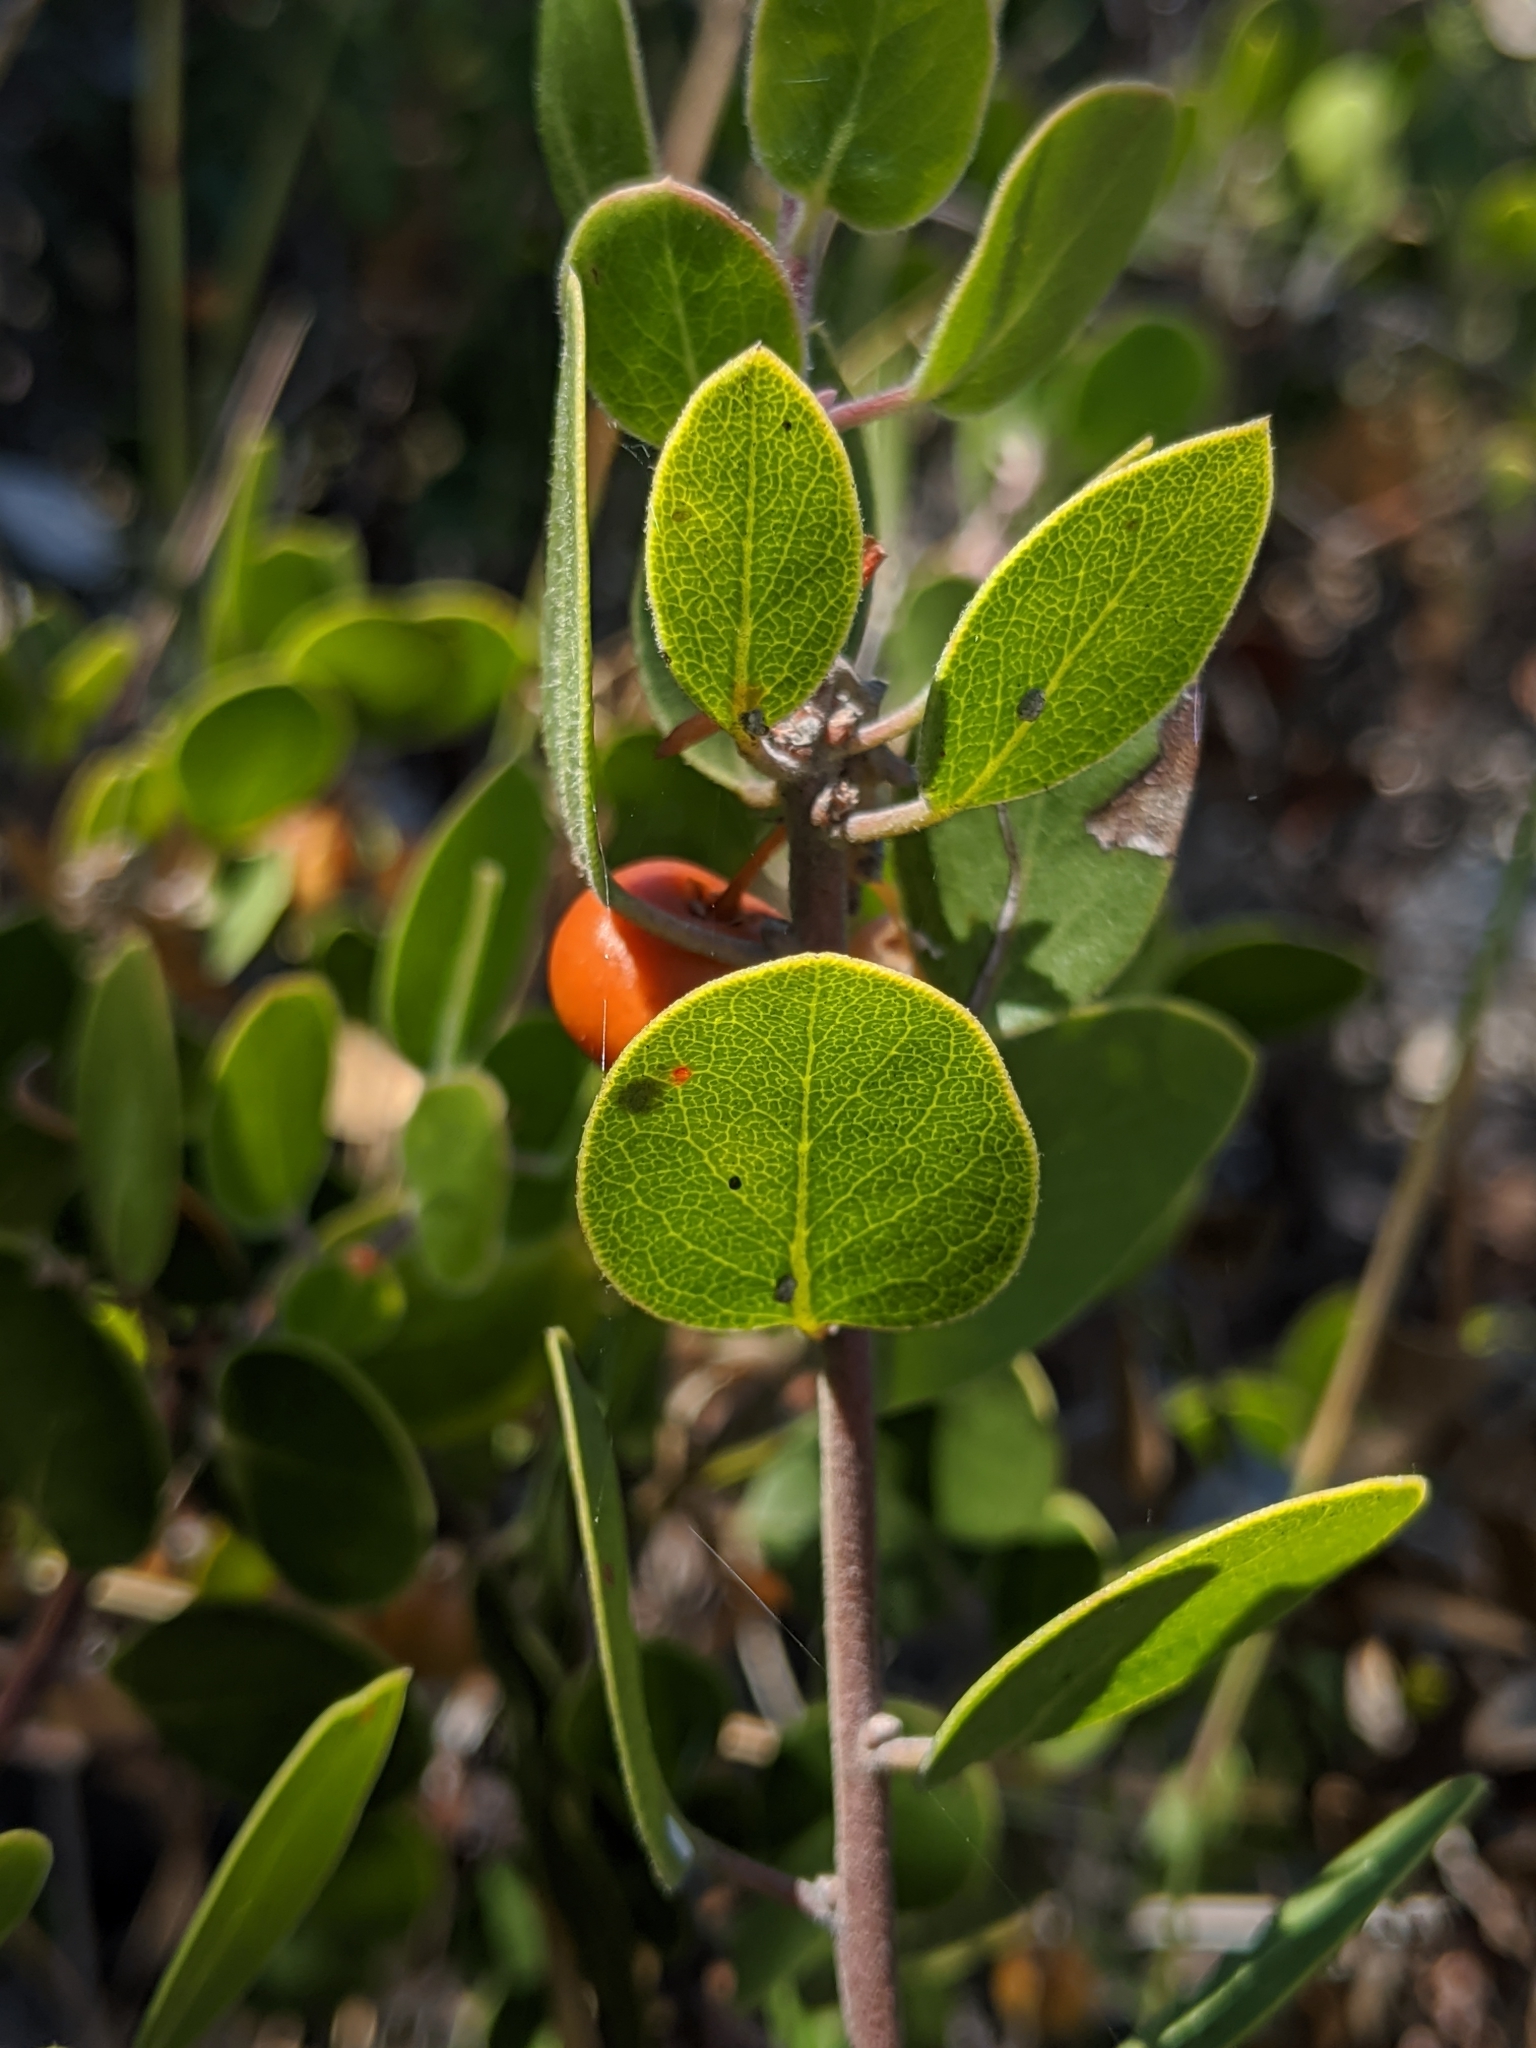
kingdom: Plantae
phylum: Tracheophyta
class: Magnoliopsida
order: Ericales
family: Ericaceae
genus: Arctostaphylos
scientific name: Arctostaphylos rudis
